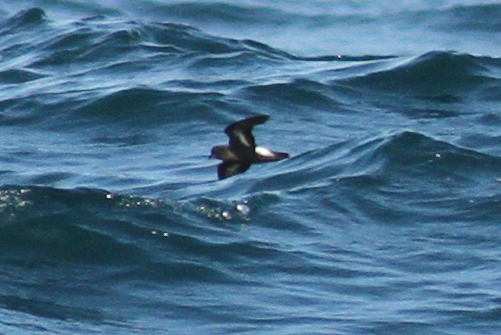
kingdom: Animalia
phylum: Chordata
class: Aves
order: Procellariiformes
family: Hydrobatidae
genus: Hydrobates
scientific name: Hydrobates pelagicus
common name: European storm-petrel
